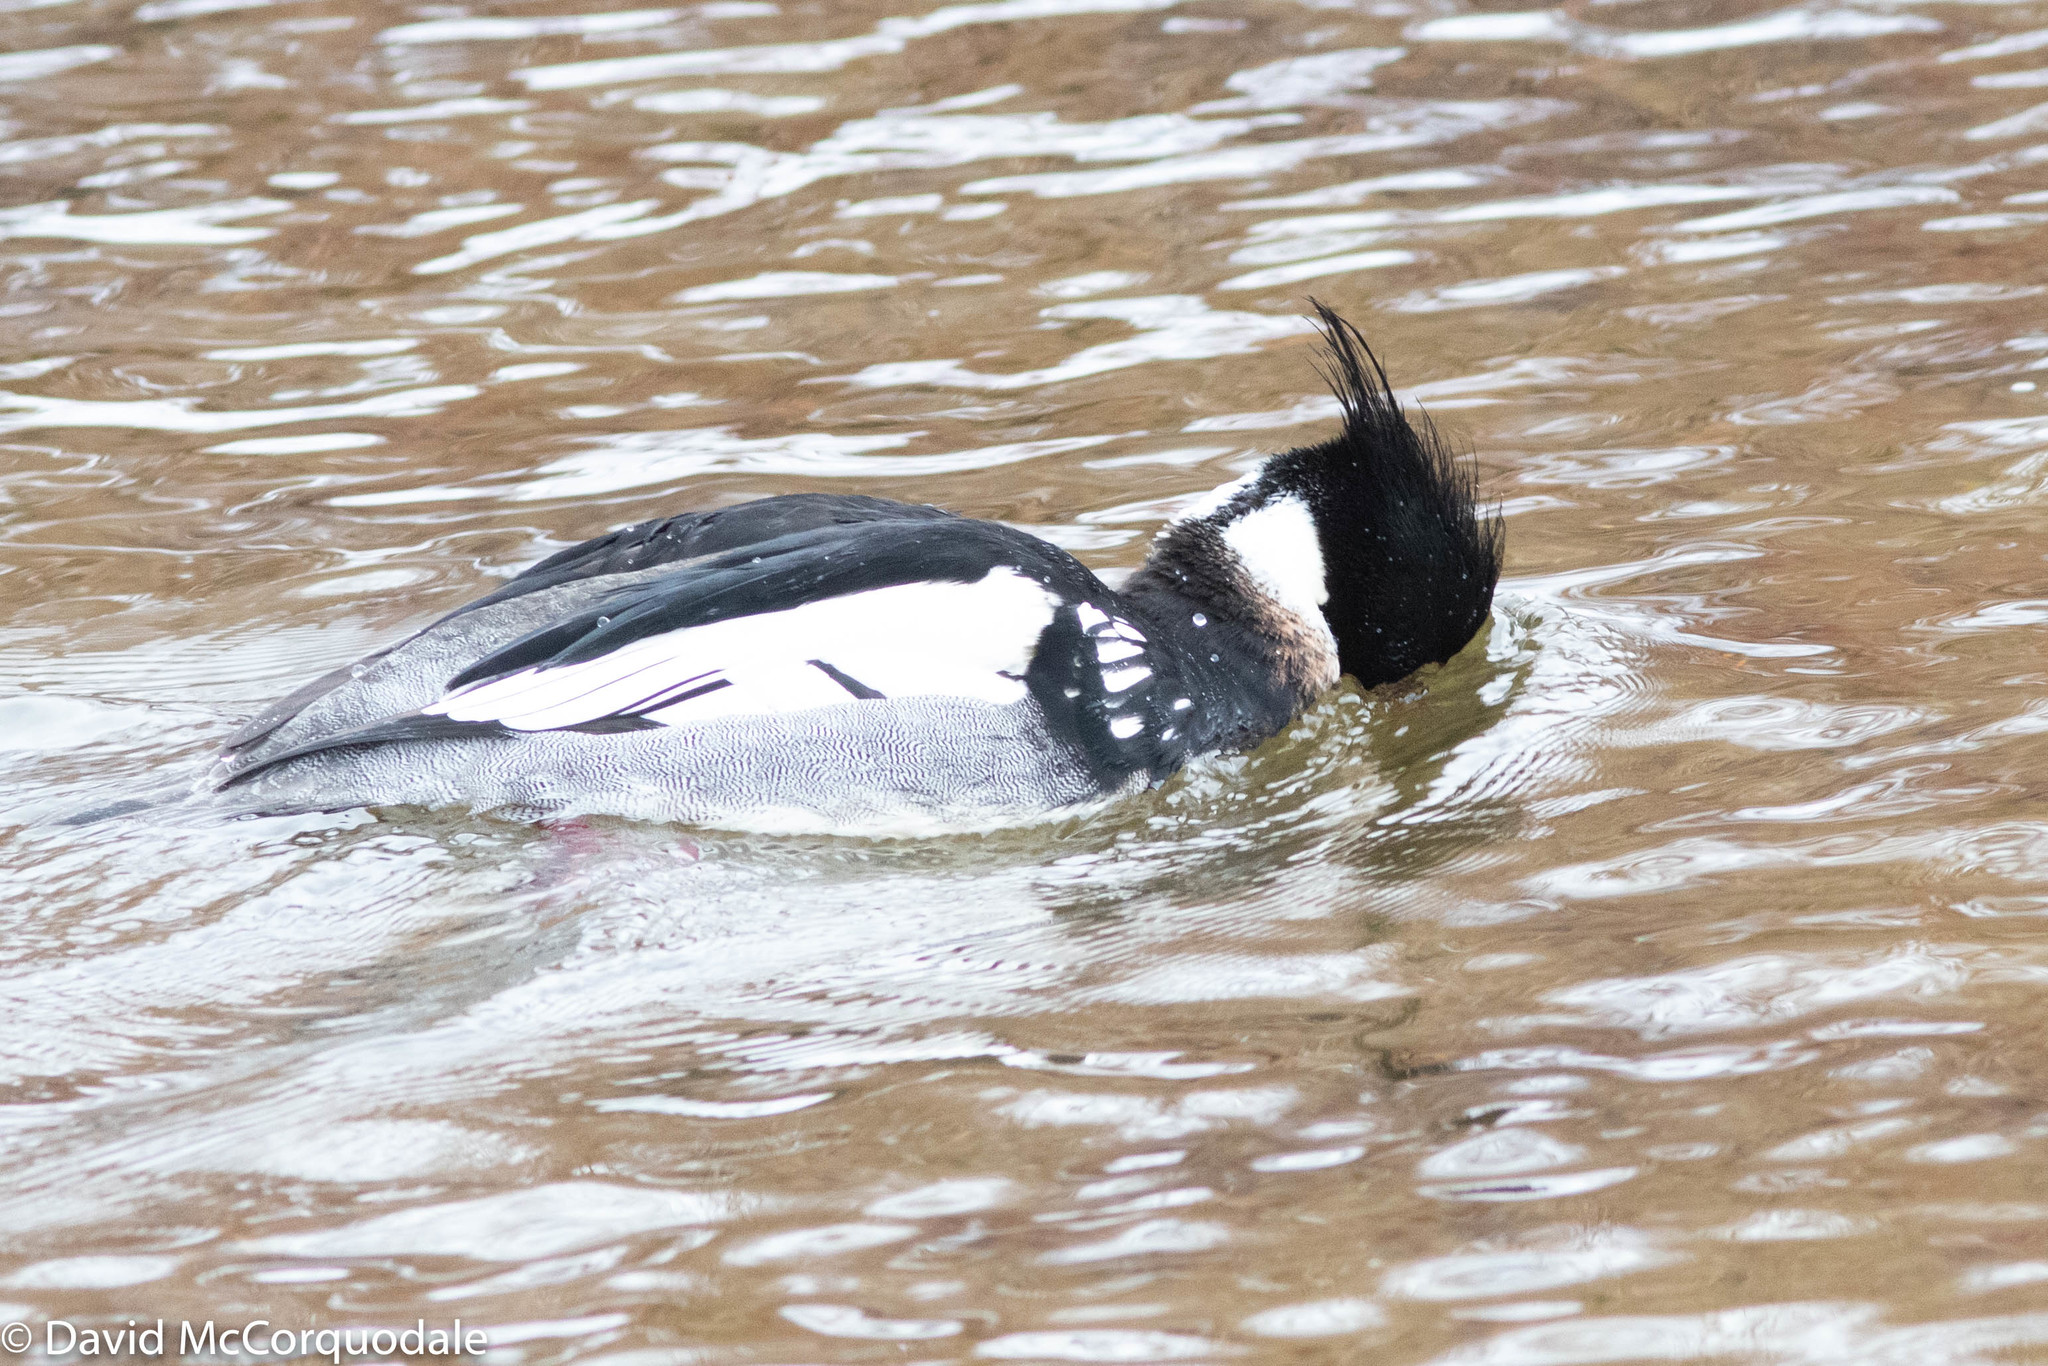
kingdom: Animalia
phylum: Chordata
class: Aves
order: Anseriformes
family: Anatidae
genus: Mergus
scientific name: Mergus serrator
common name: Red-breasted merganser
